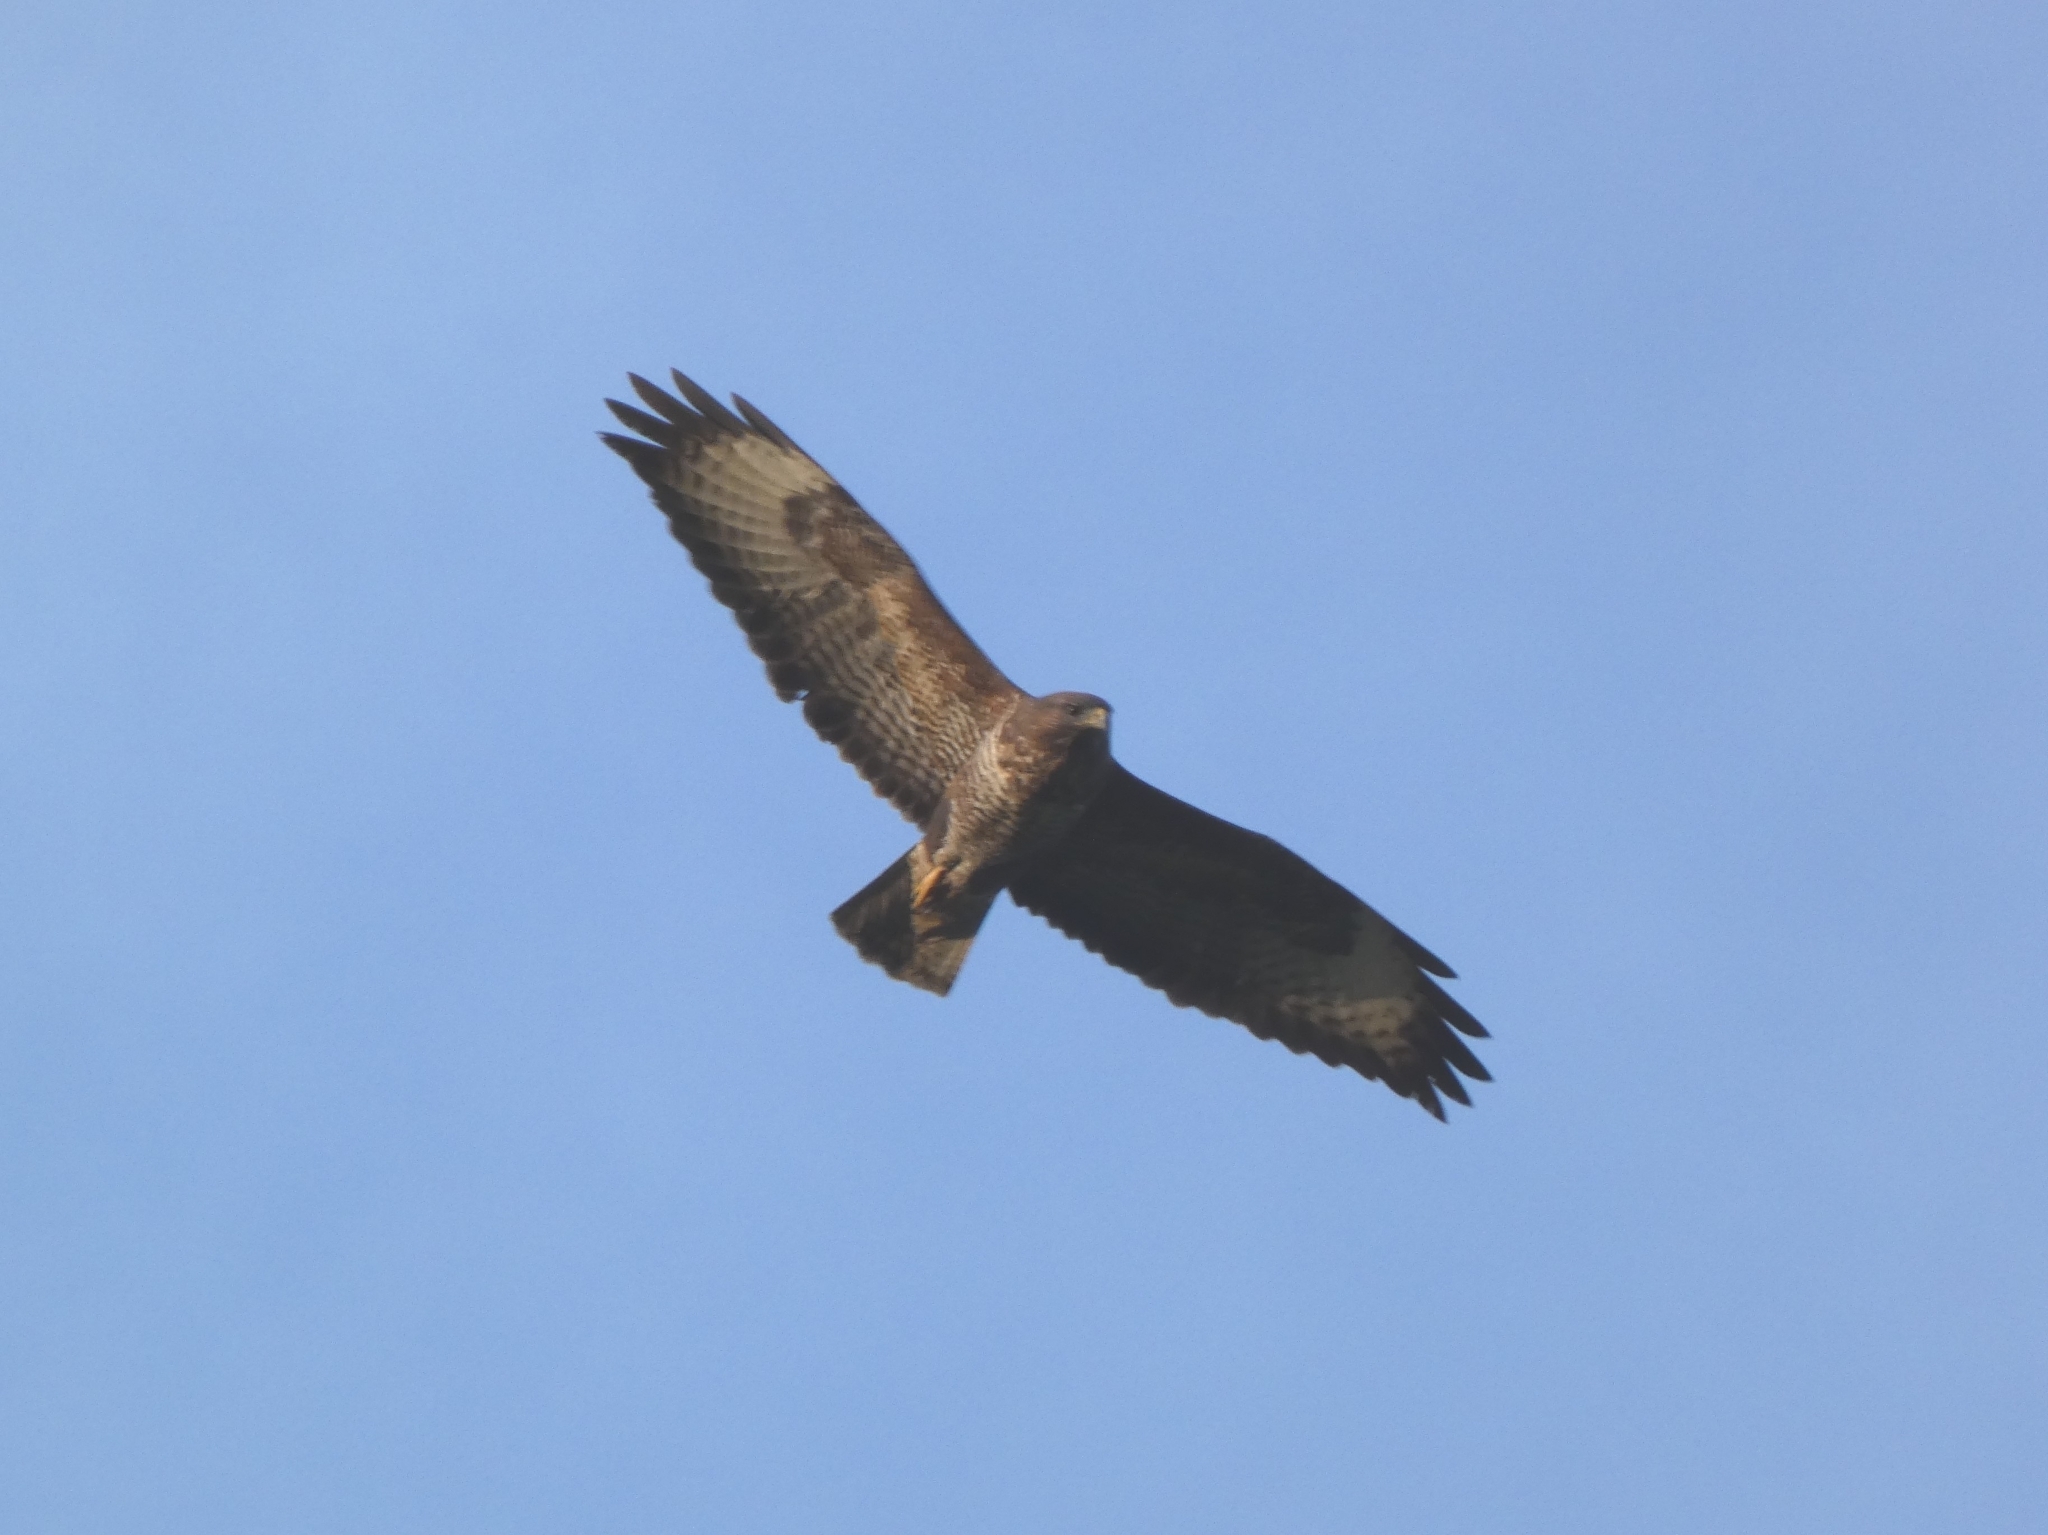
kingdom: Animalia
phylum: Chordata
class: Aves
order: Accipitriformes
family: Accipitridae
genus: Buteo
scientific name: Buteo buteo
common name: Common buzzard
